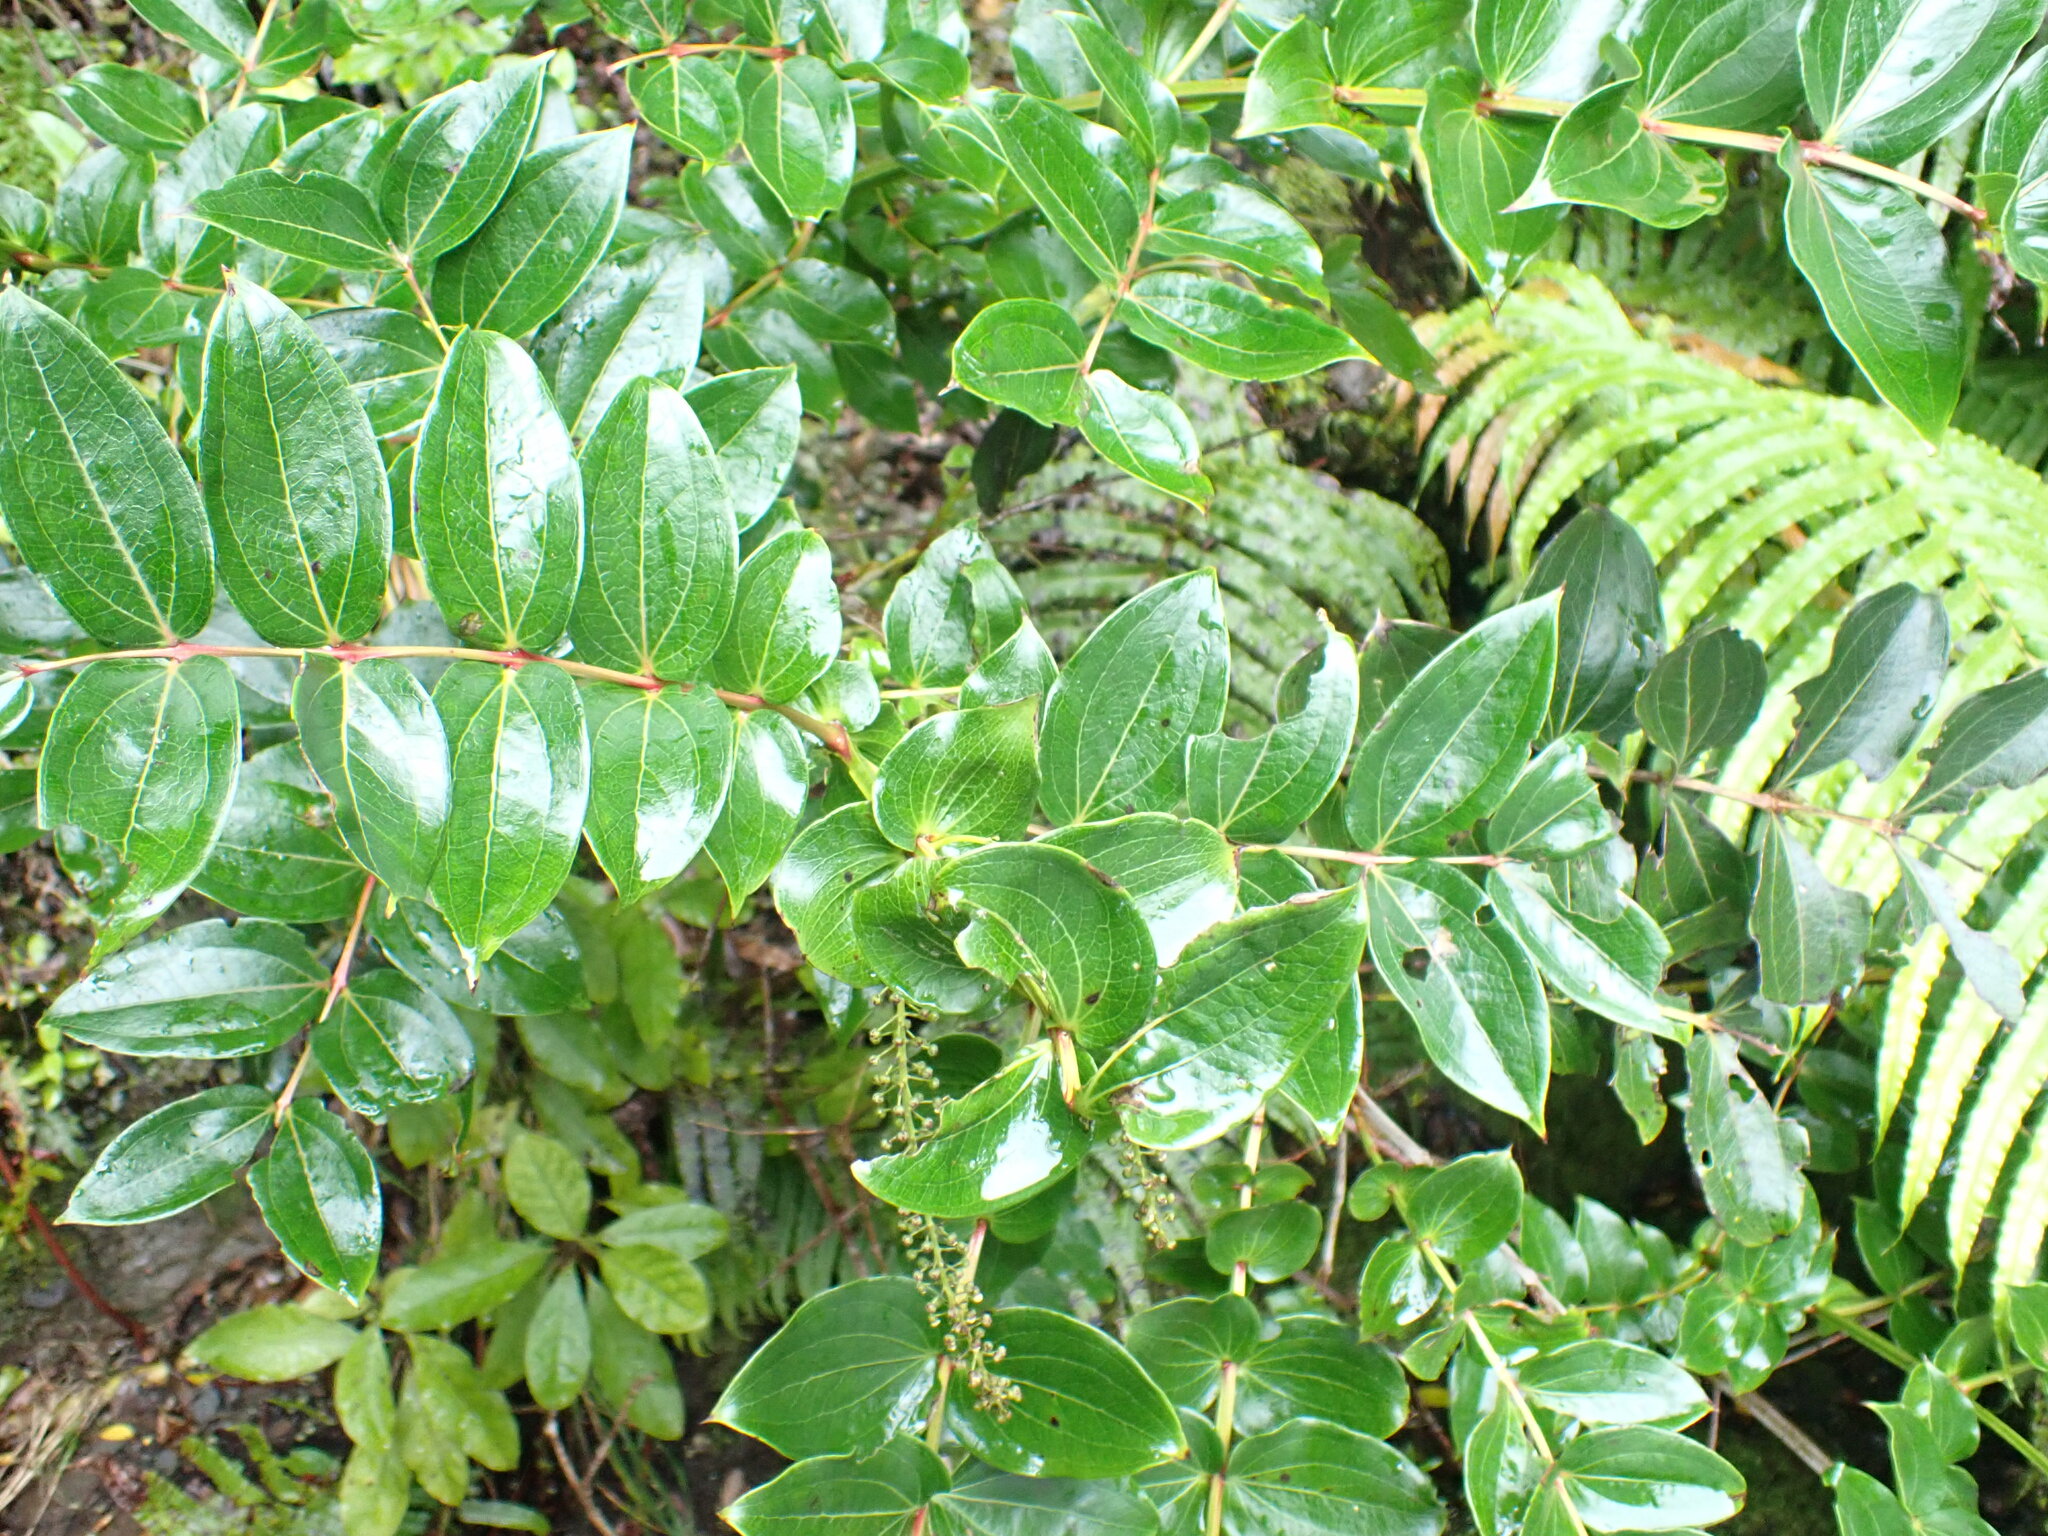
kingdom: Plantae
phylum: Tracheophyta
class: Magnoliopsida
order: Cucurbitales
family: Coriariaceae
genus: Coriaria
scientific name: Coriaria arborea
